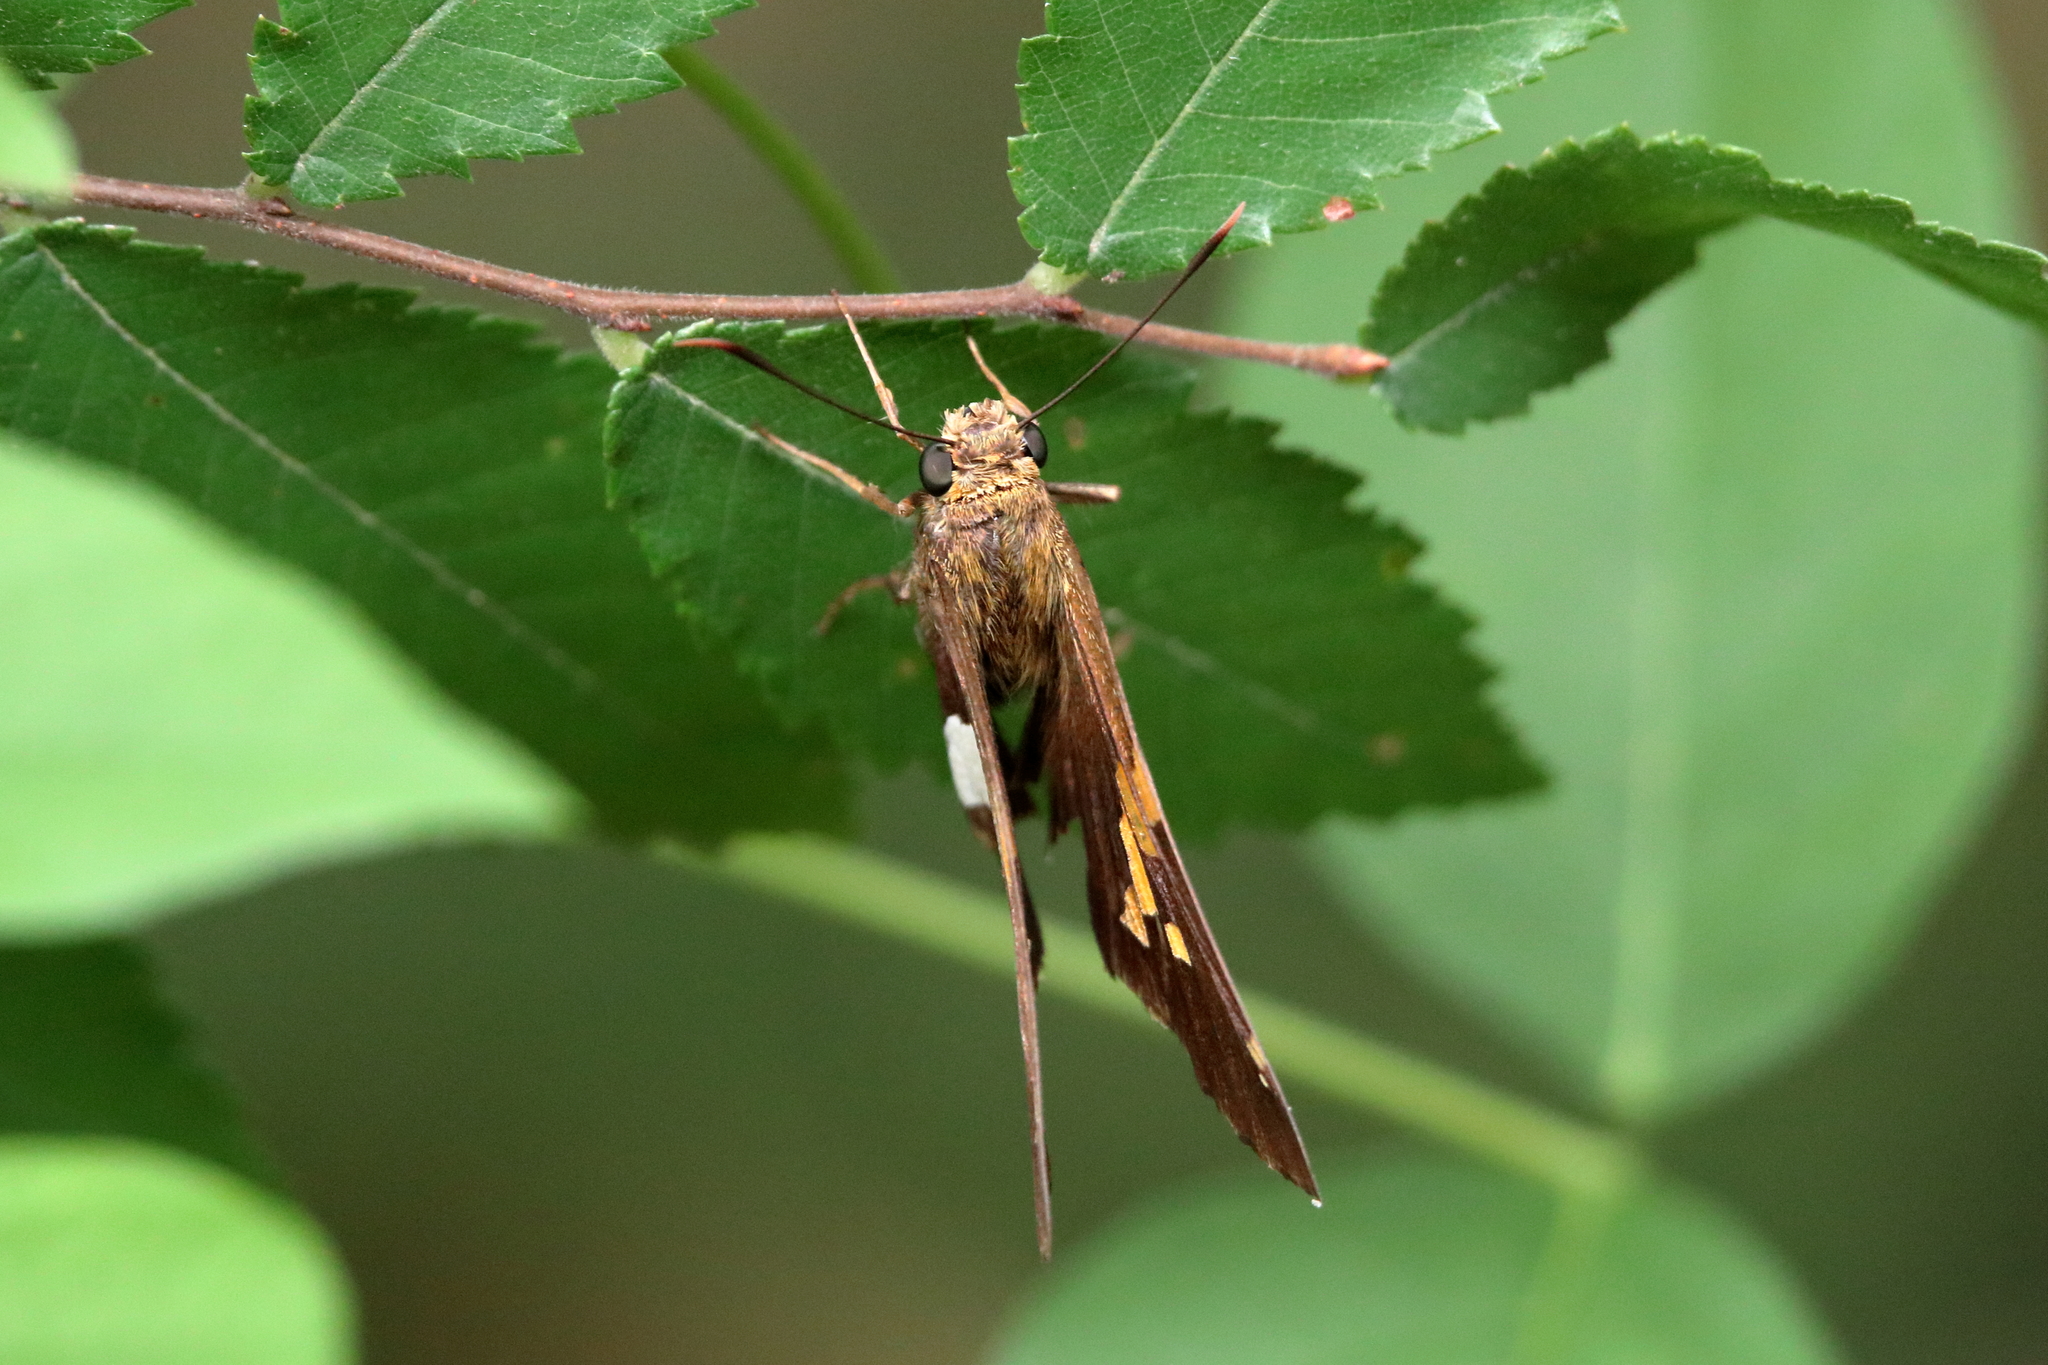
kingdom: Animalia
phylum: Arthropoda
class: Insecta
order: Lepidoptera
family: Hesperiidae
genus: Epargyreus
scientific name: Epargyreus clarus
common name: Silver-spotted skipper
